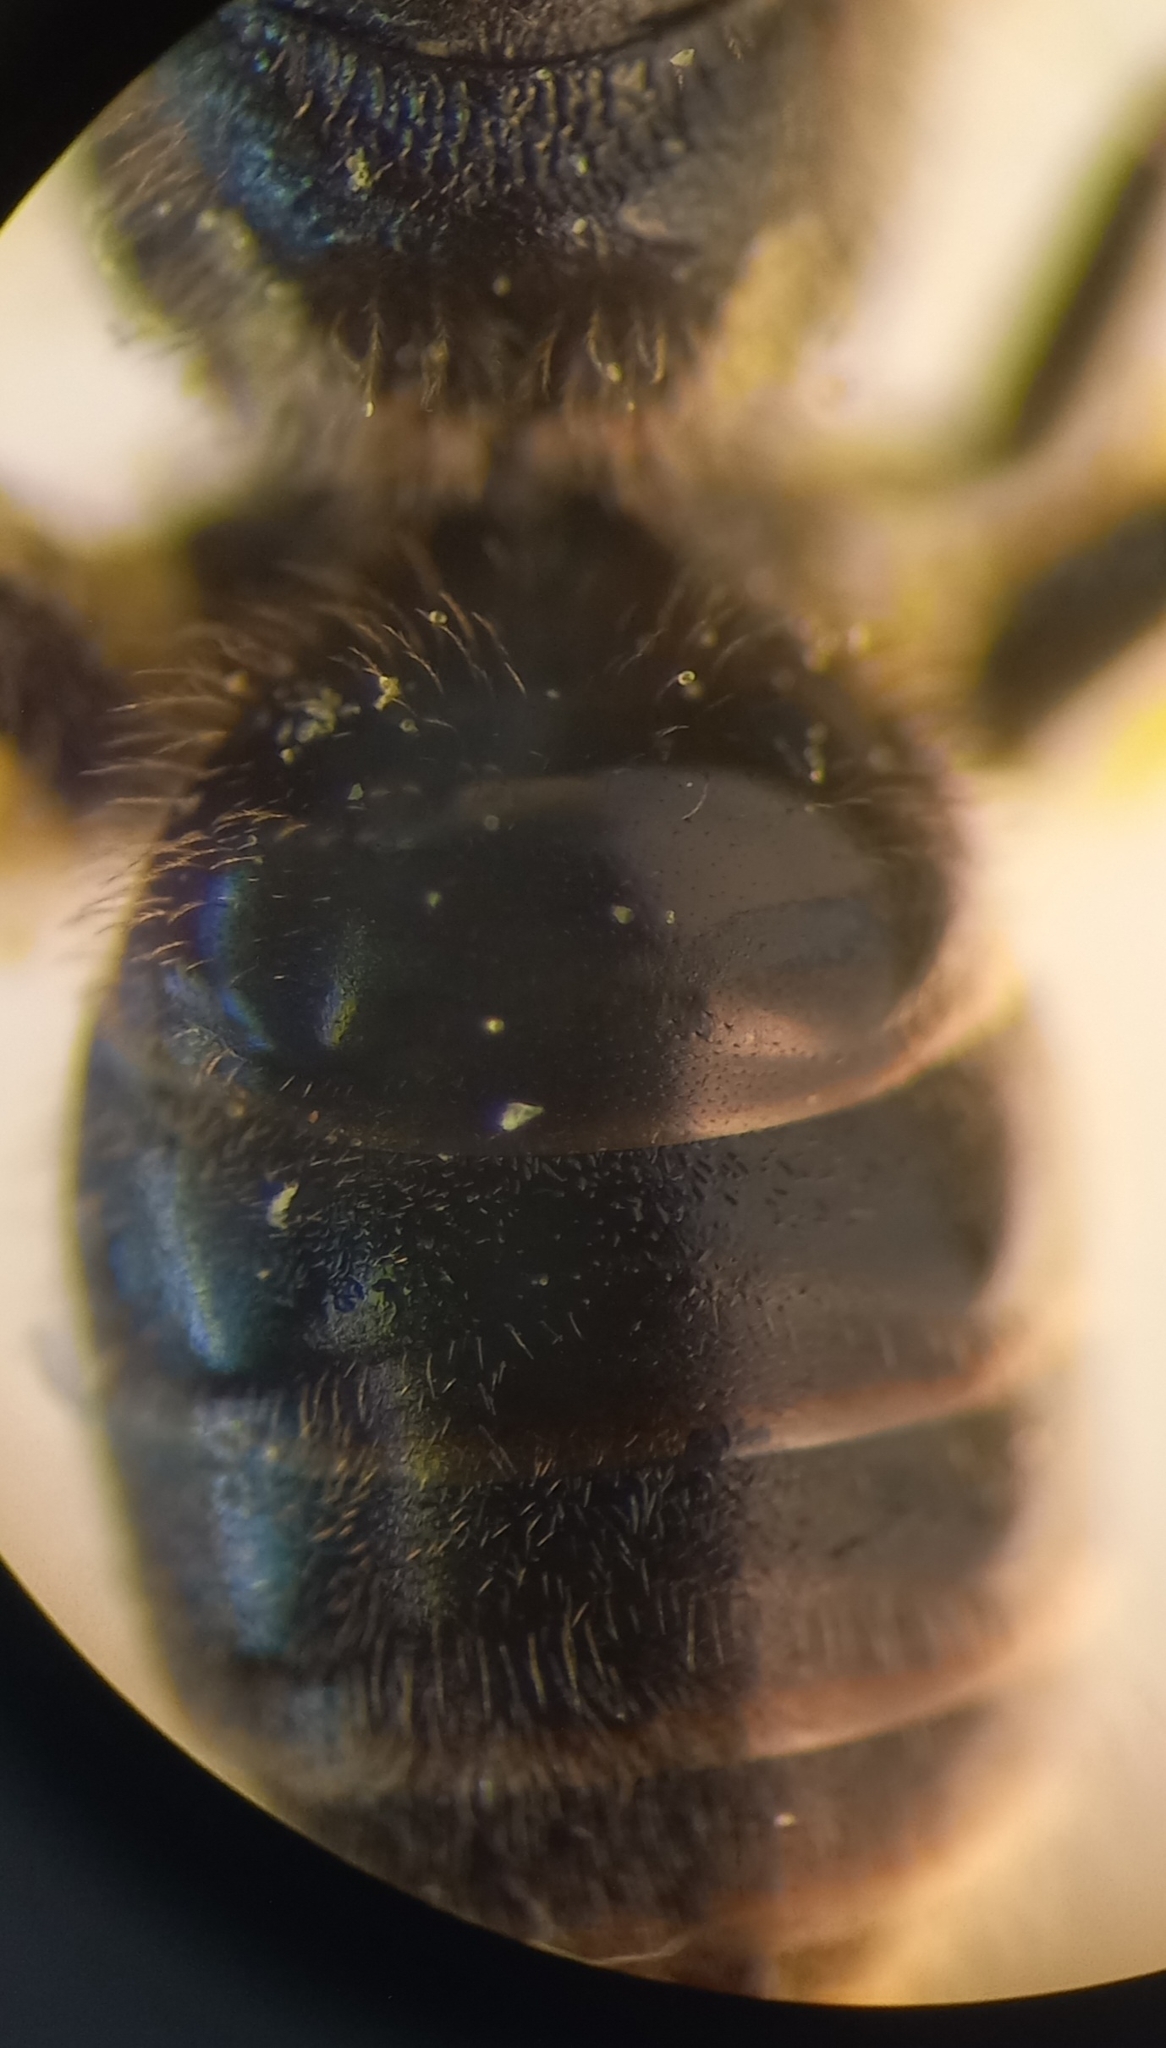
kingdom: Animalia
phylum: Arthropoda
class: Insecta
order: Hymenoptera
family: Halictidae
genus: Lasioglossum
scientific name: Lasioglossum pauxillum
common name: Lobe-spurred furrow bee
